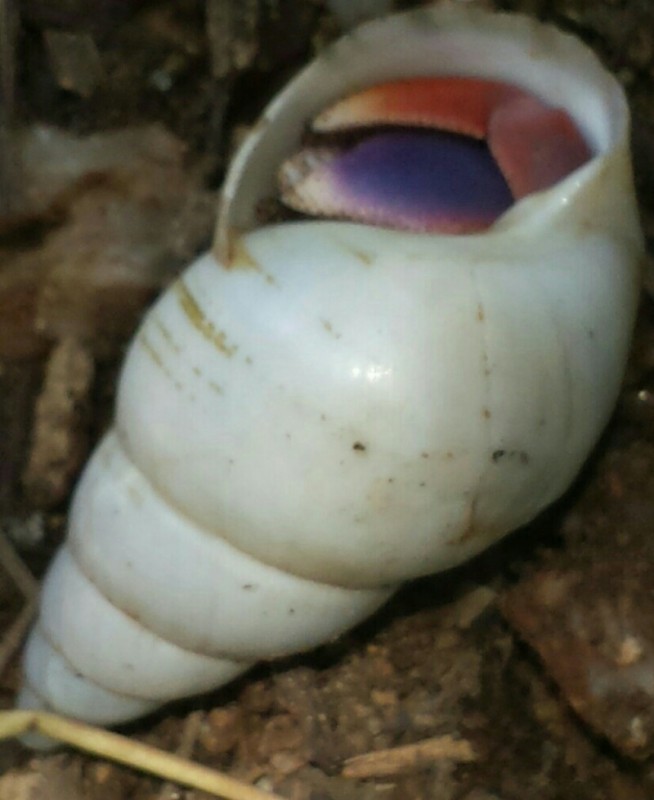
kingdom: Animalia
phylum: Arthropoda
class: Malacostraca
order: Decapoda
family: Coenobitidae
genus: Coenobita
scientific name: Coenobita clypeatus
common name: Caribbean hermit crab
